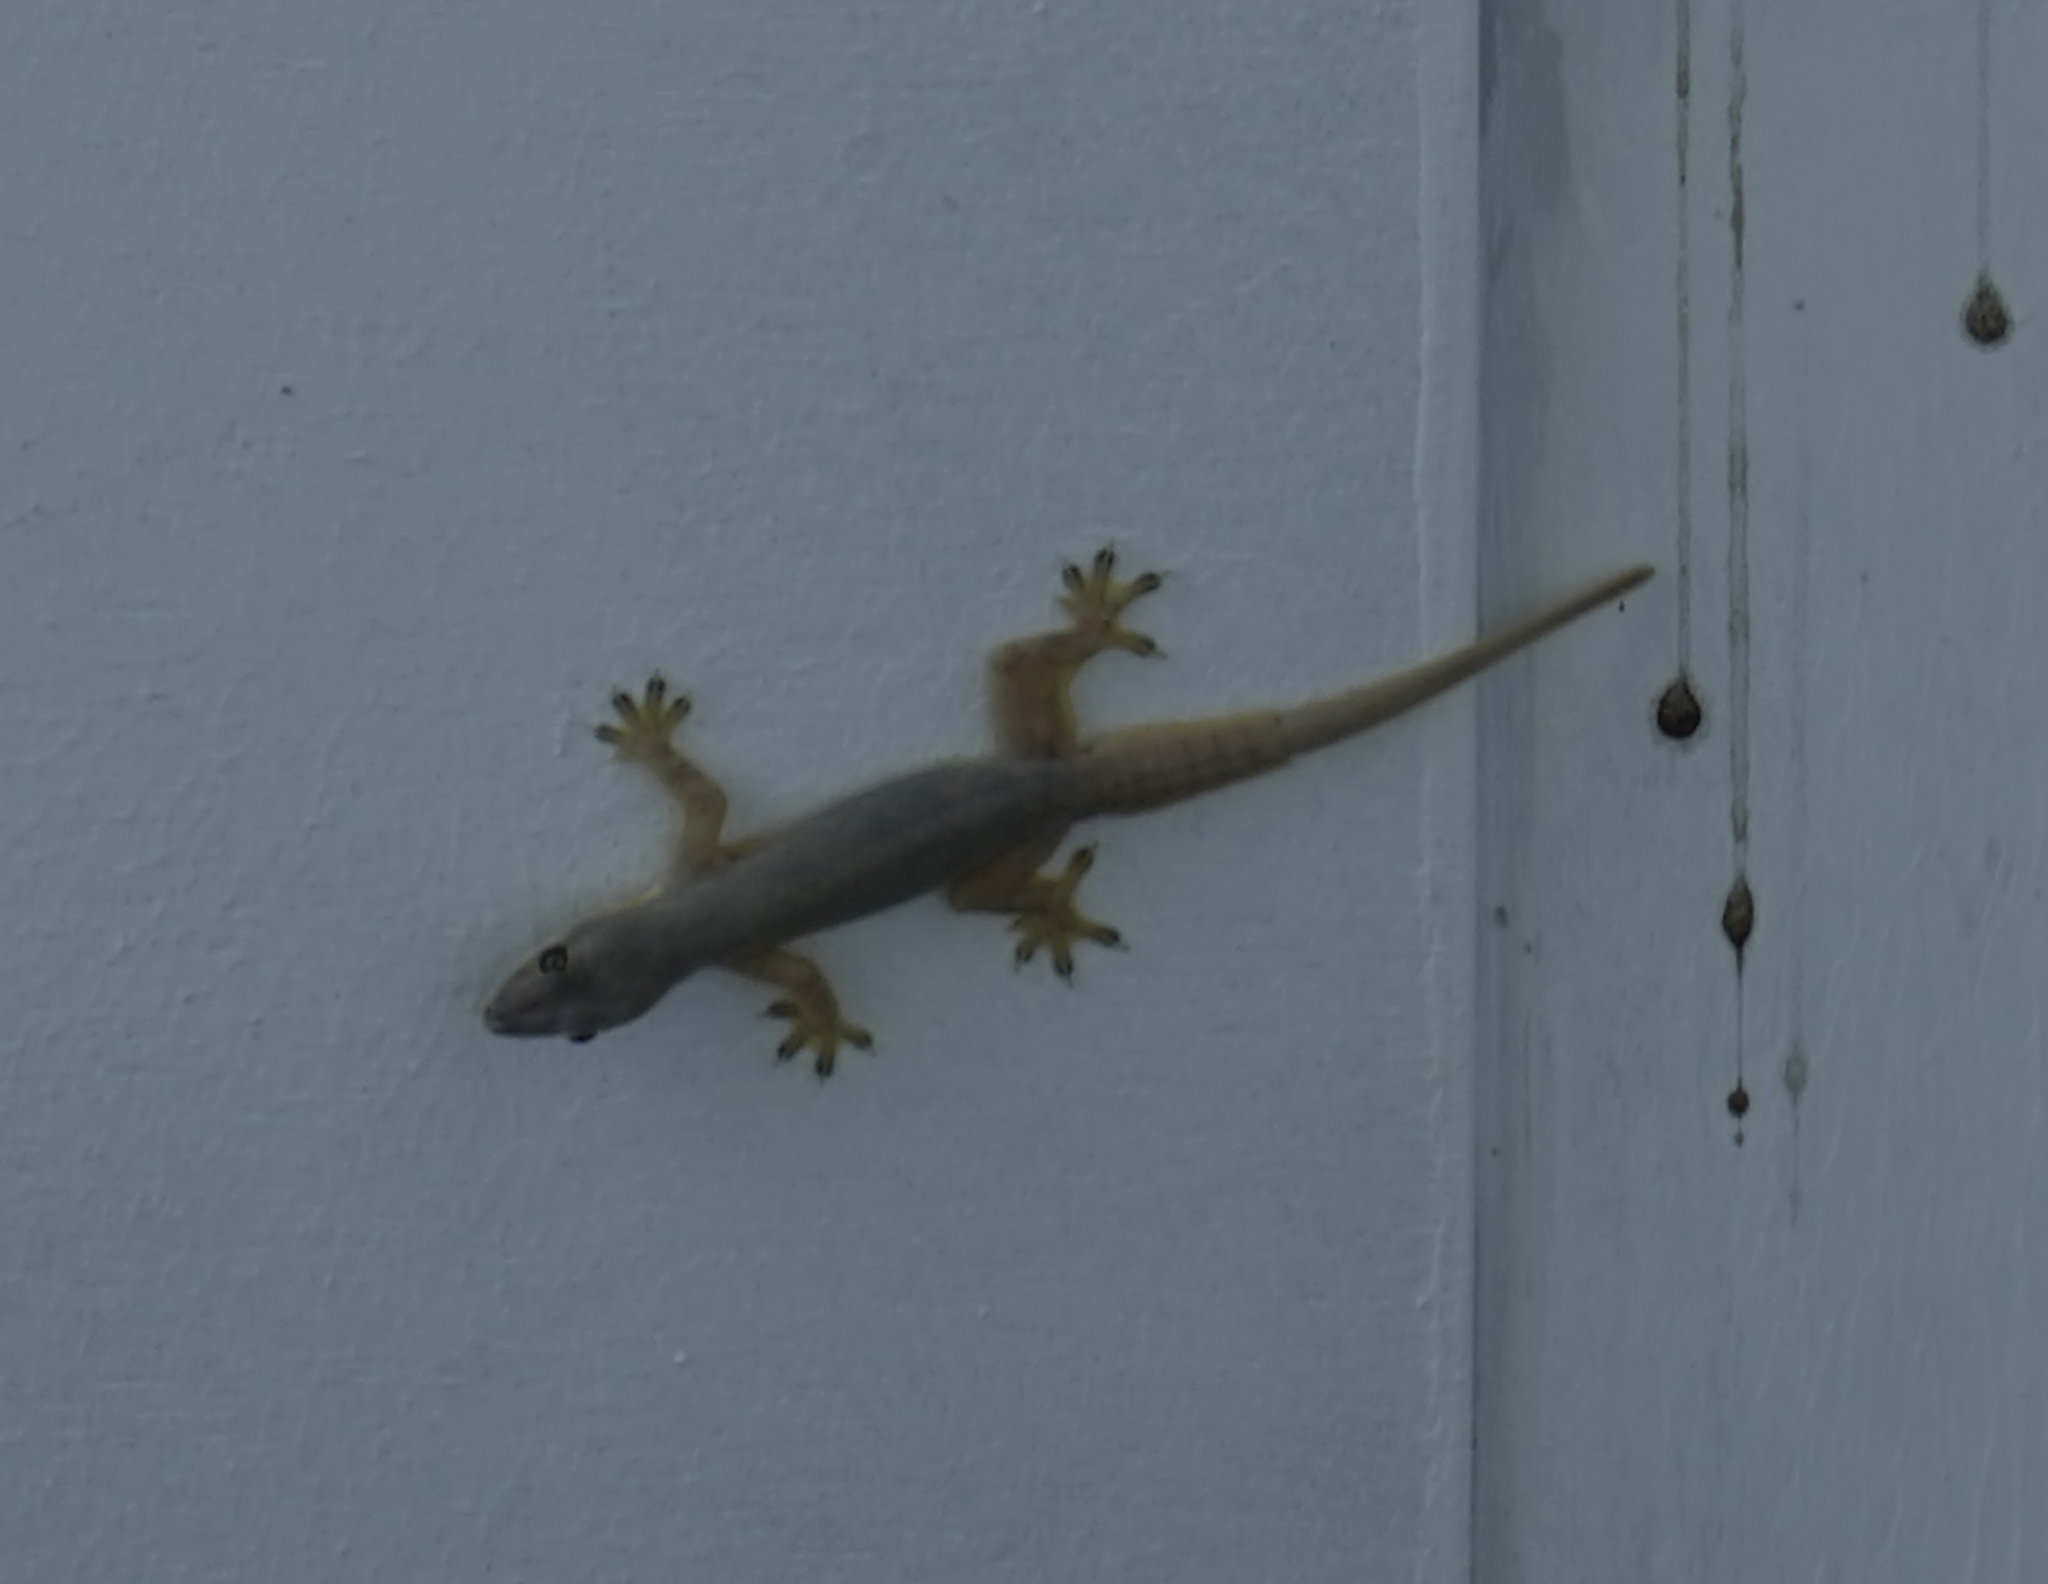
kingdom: Animalia
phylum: Chordata
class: Squamata
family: Gekkonidae
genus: Hemidactylus
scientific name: Hemidactylus platyurus
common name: Flat-tailed house gecko
